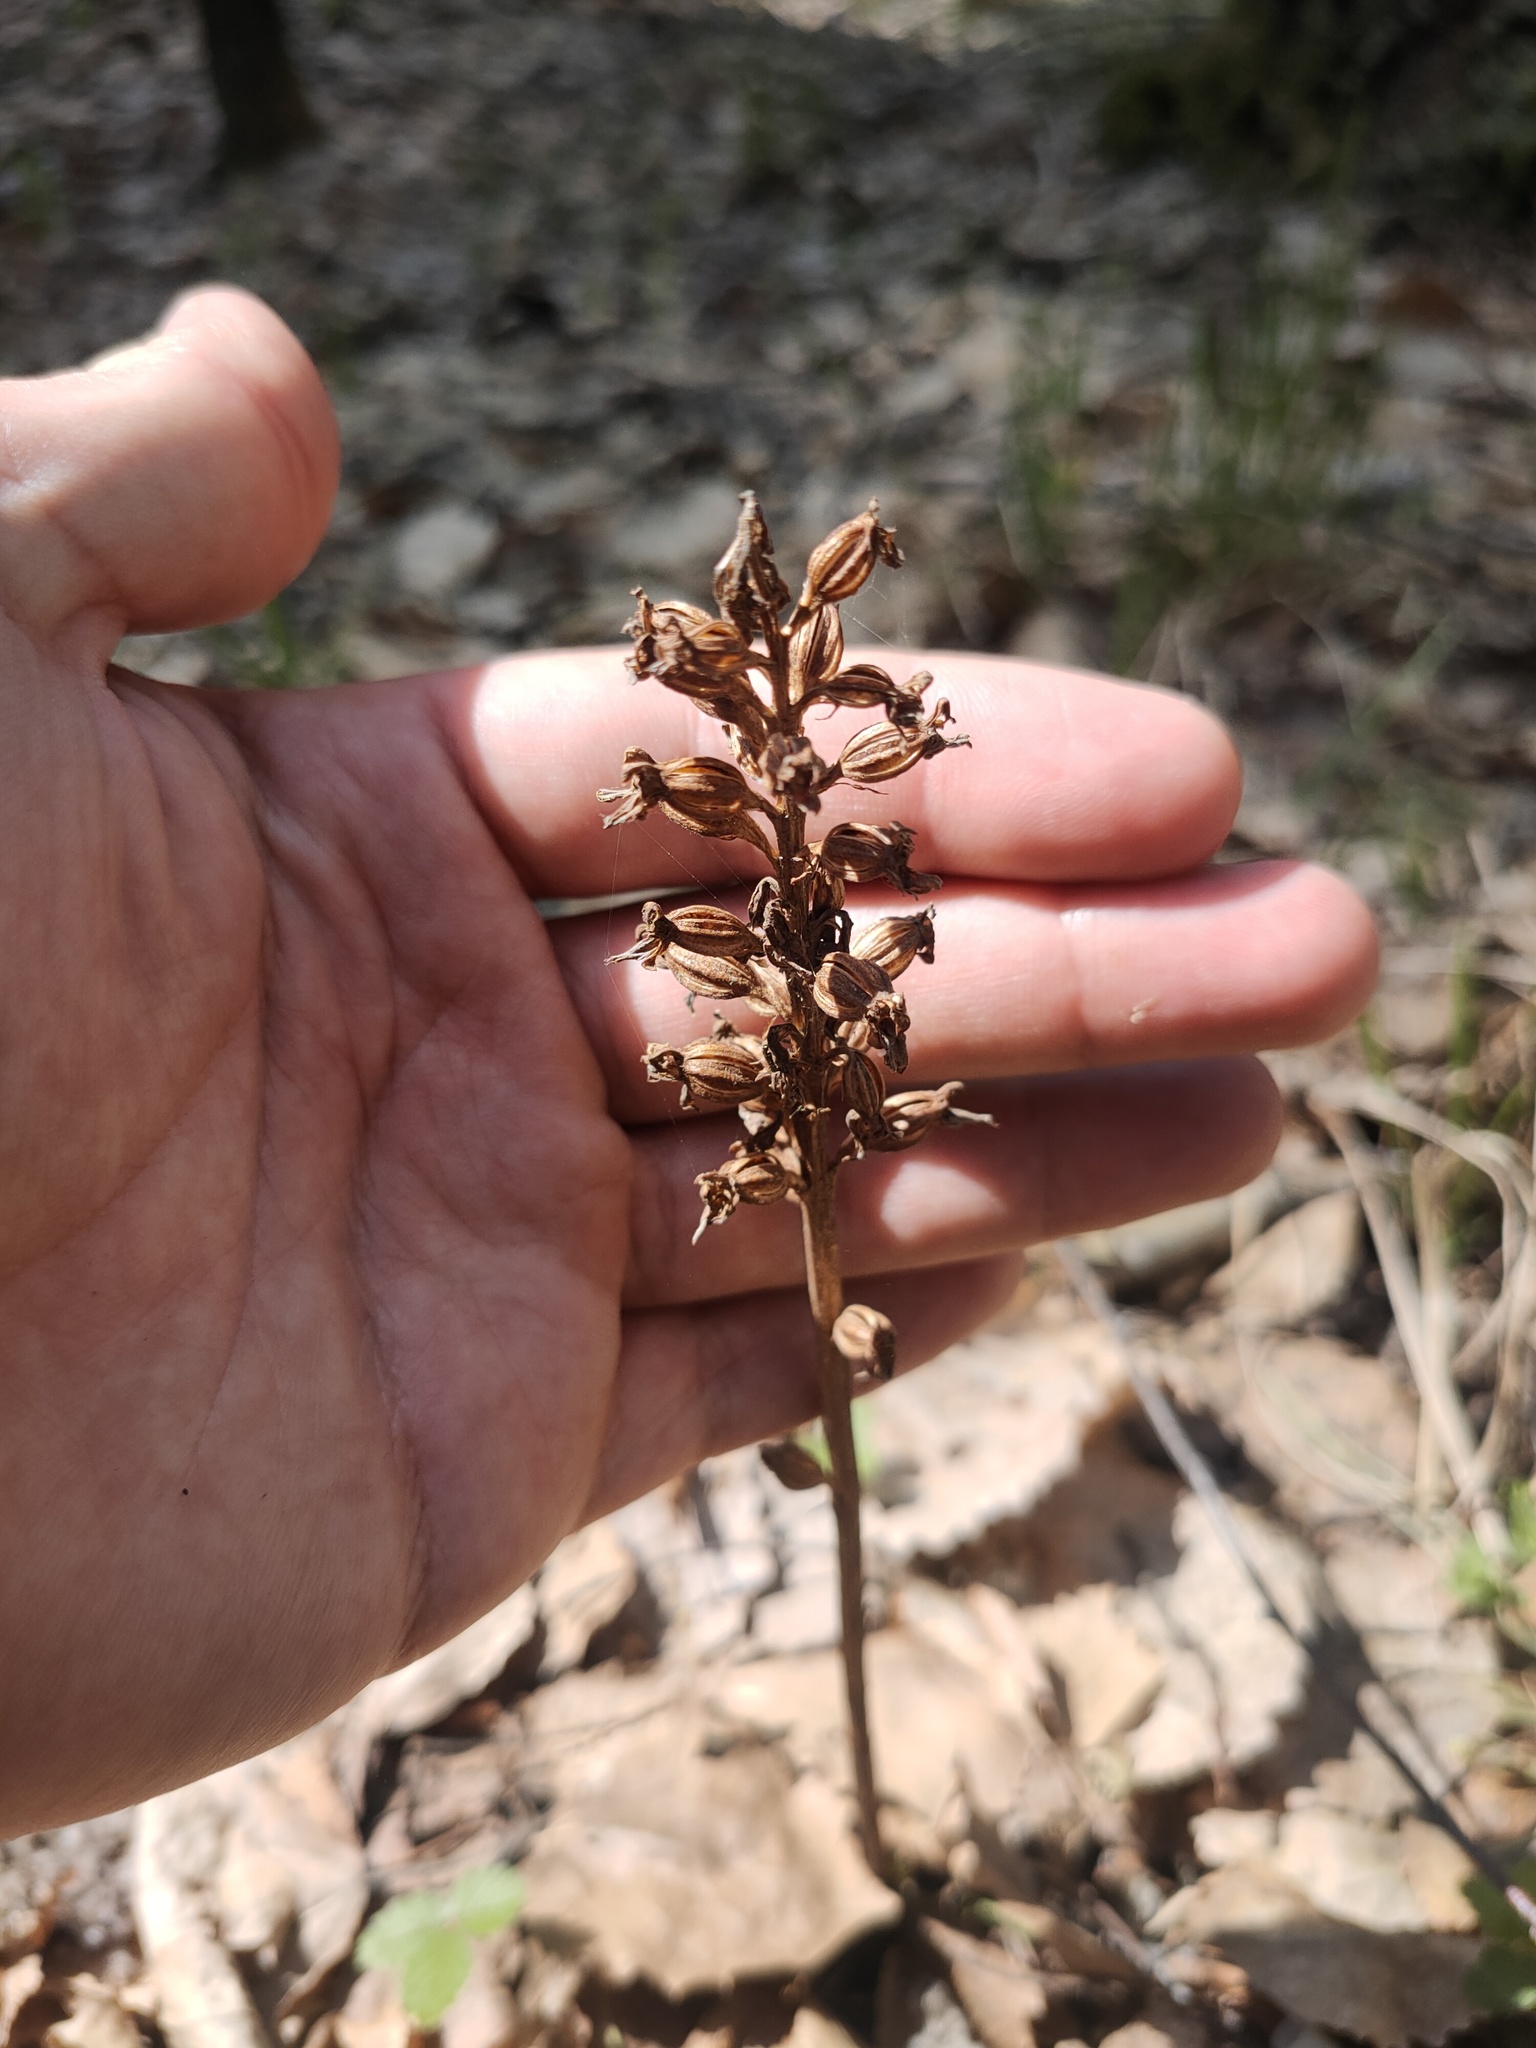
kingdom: Plantae
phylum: Tracheophyta
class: Liliopsida
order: Asparagales
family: Orchidaceae
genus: Neottia
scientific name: Neottia nidus-avis
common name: Bird's-nest orchid
